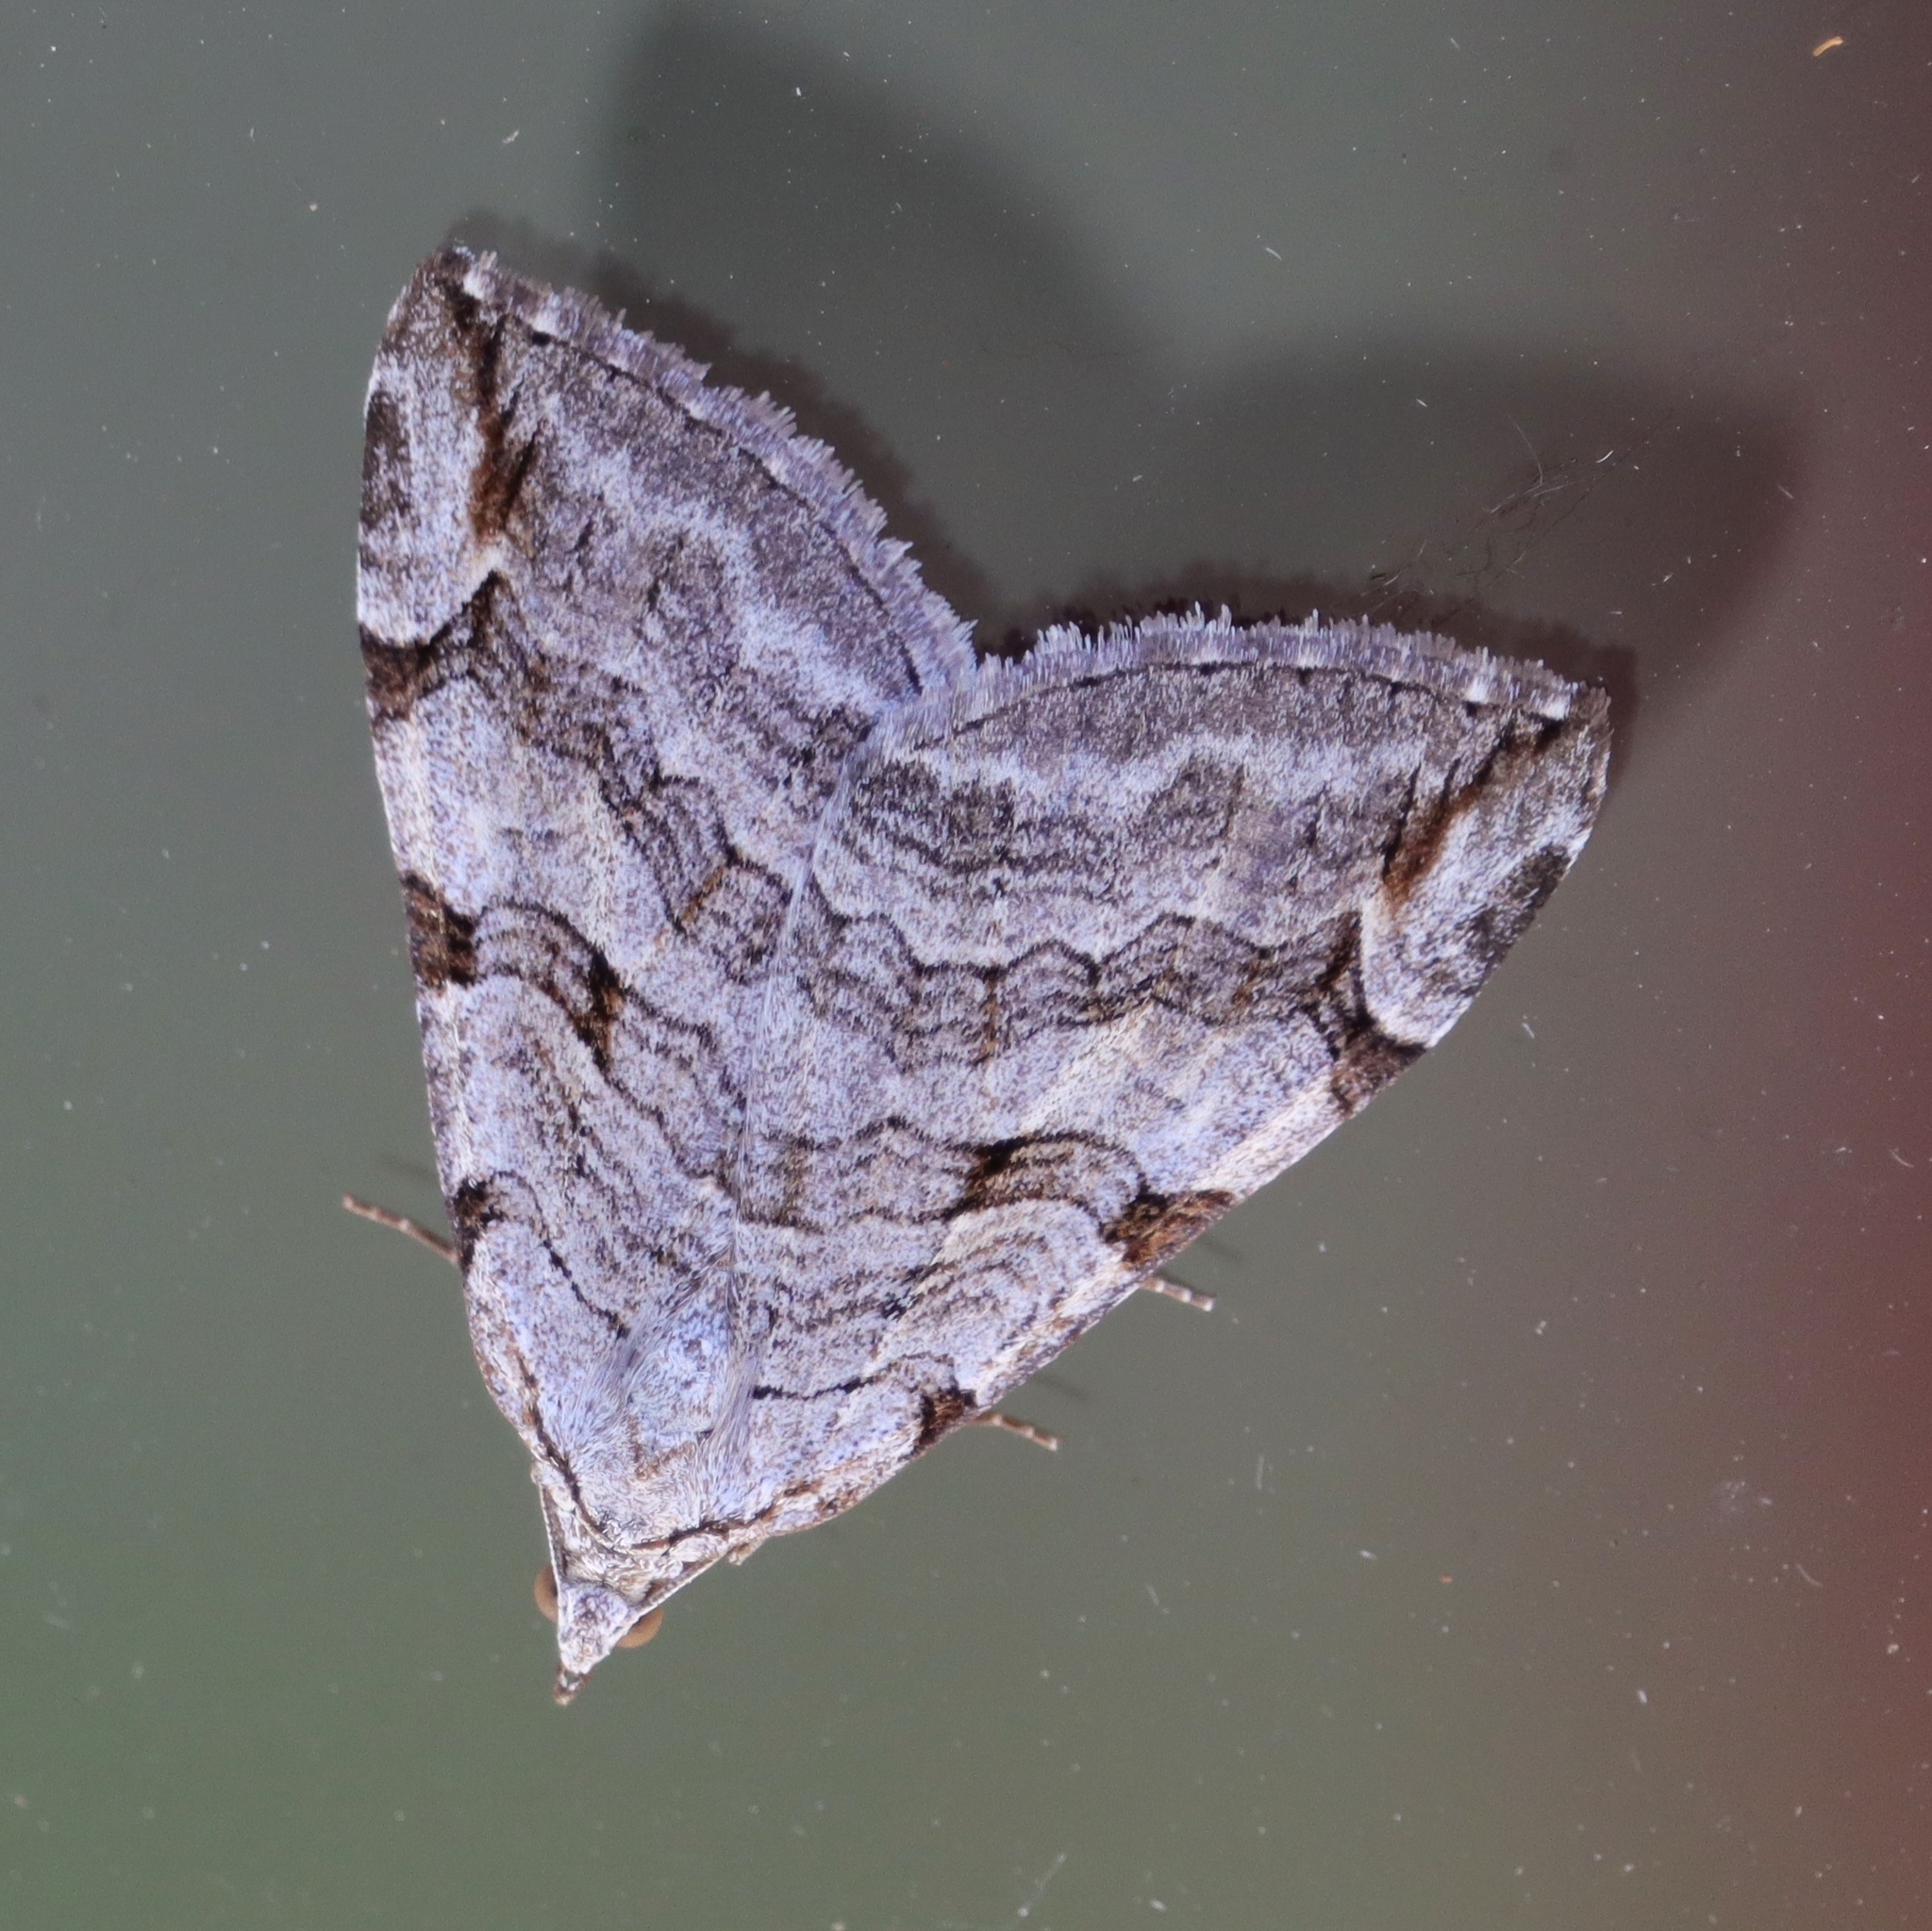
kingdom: Animalia
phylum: Arthropoda
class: Insecta
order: Lepidoptera
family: Geometridae
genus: Aplocera
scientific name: Aplocera plagiata
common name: Treble-bar
